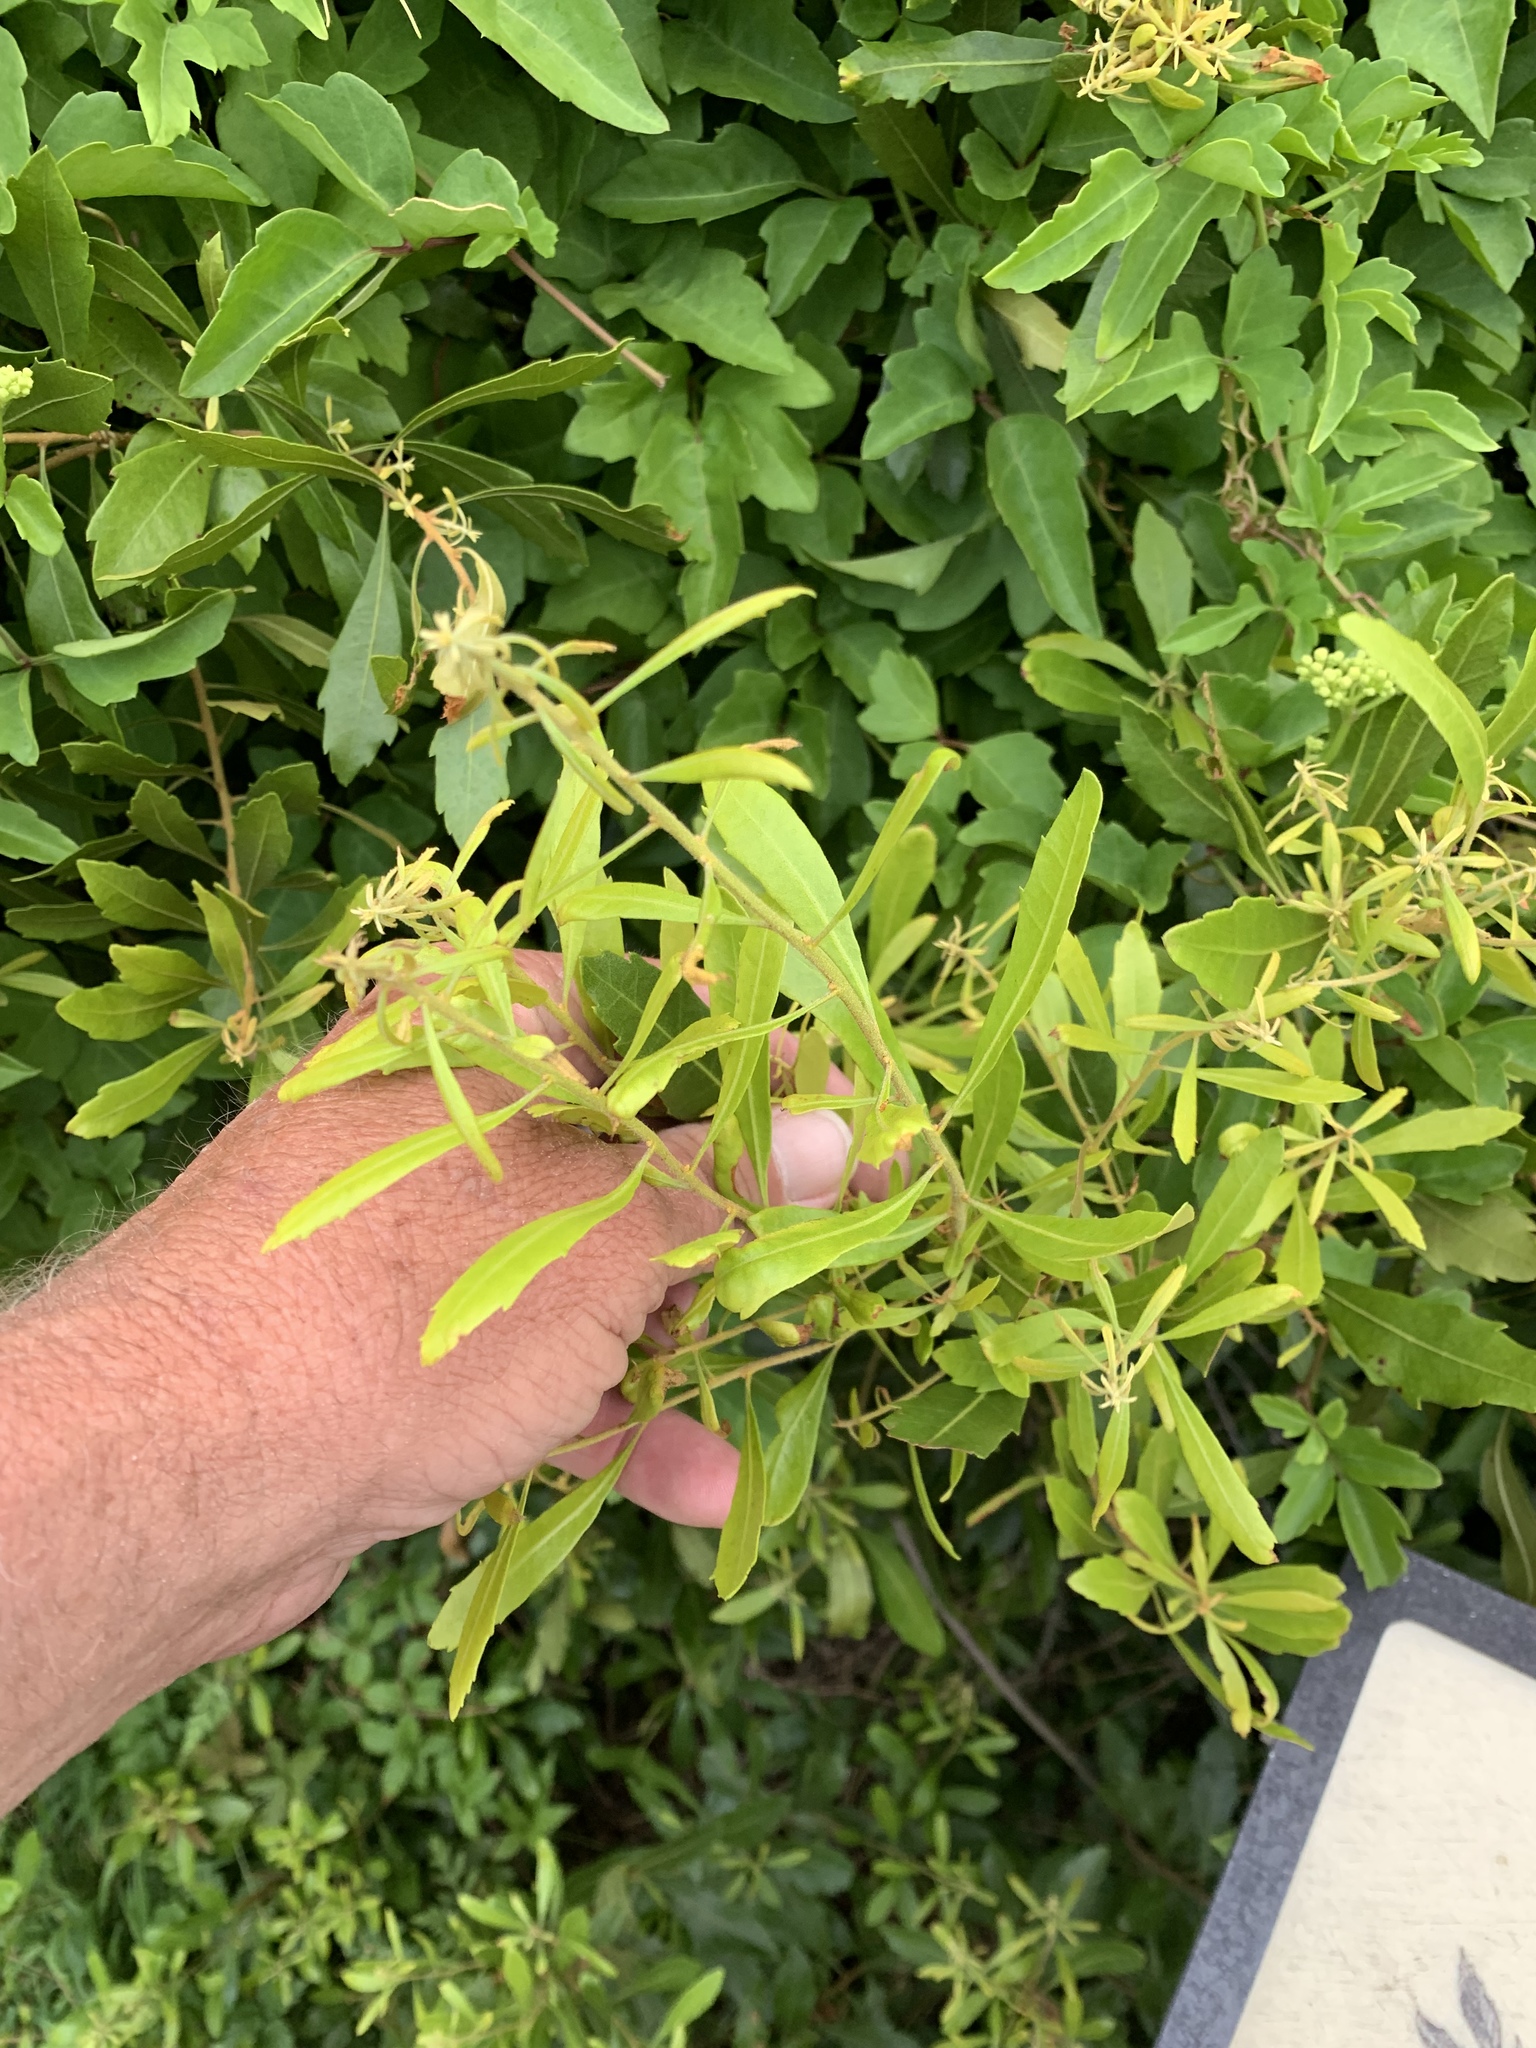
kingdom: Plantae
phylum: Tracheophyta
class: Magnoliopsida
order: Fagales
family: Myricaceae
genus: Morella
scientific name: Morella cerifera
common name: Wax myrtle
